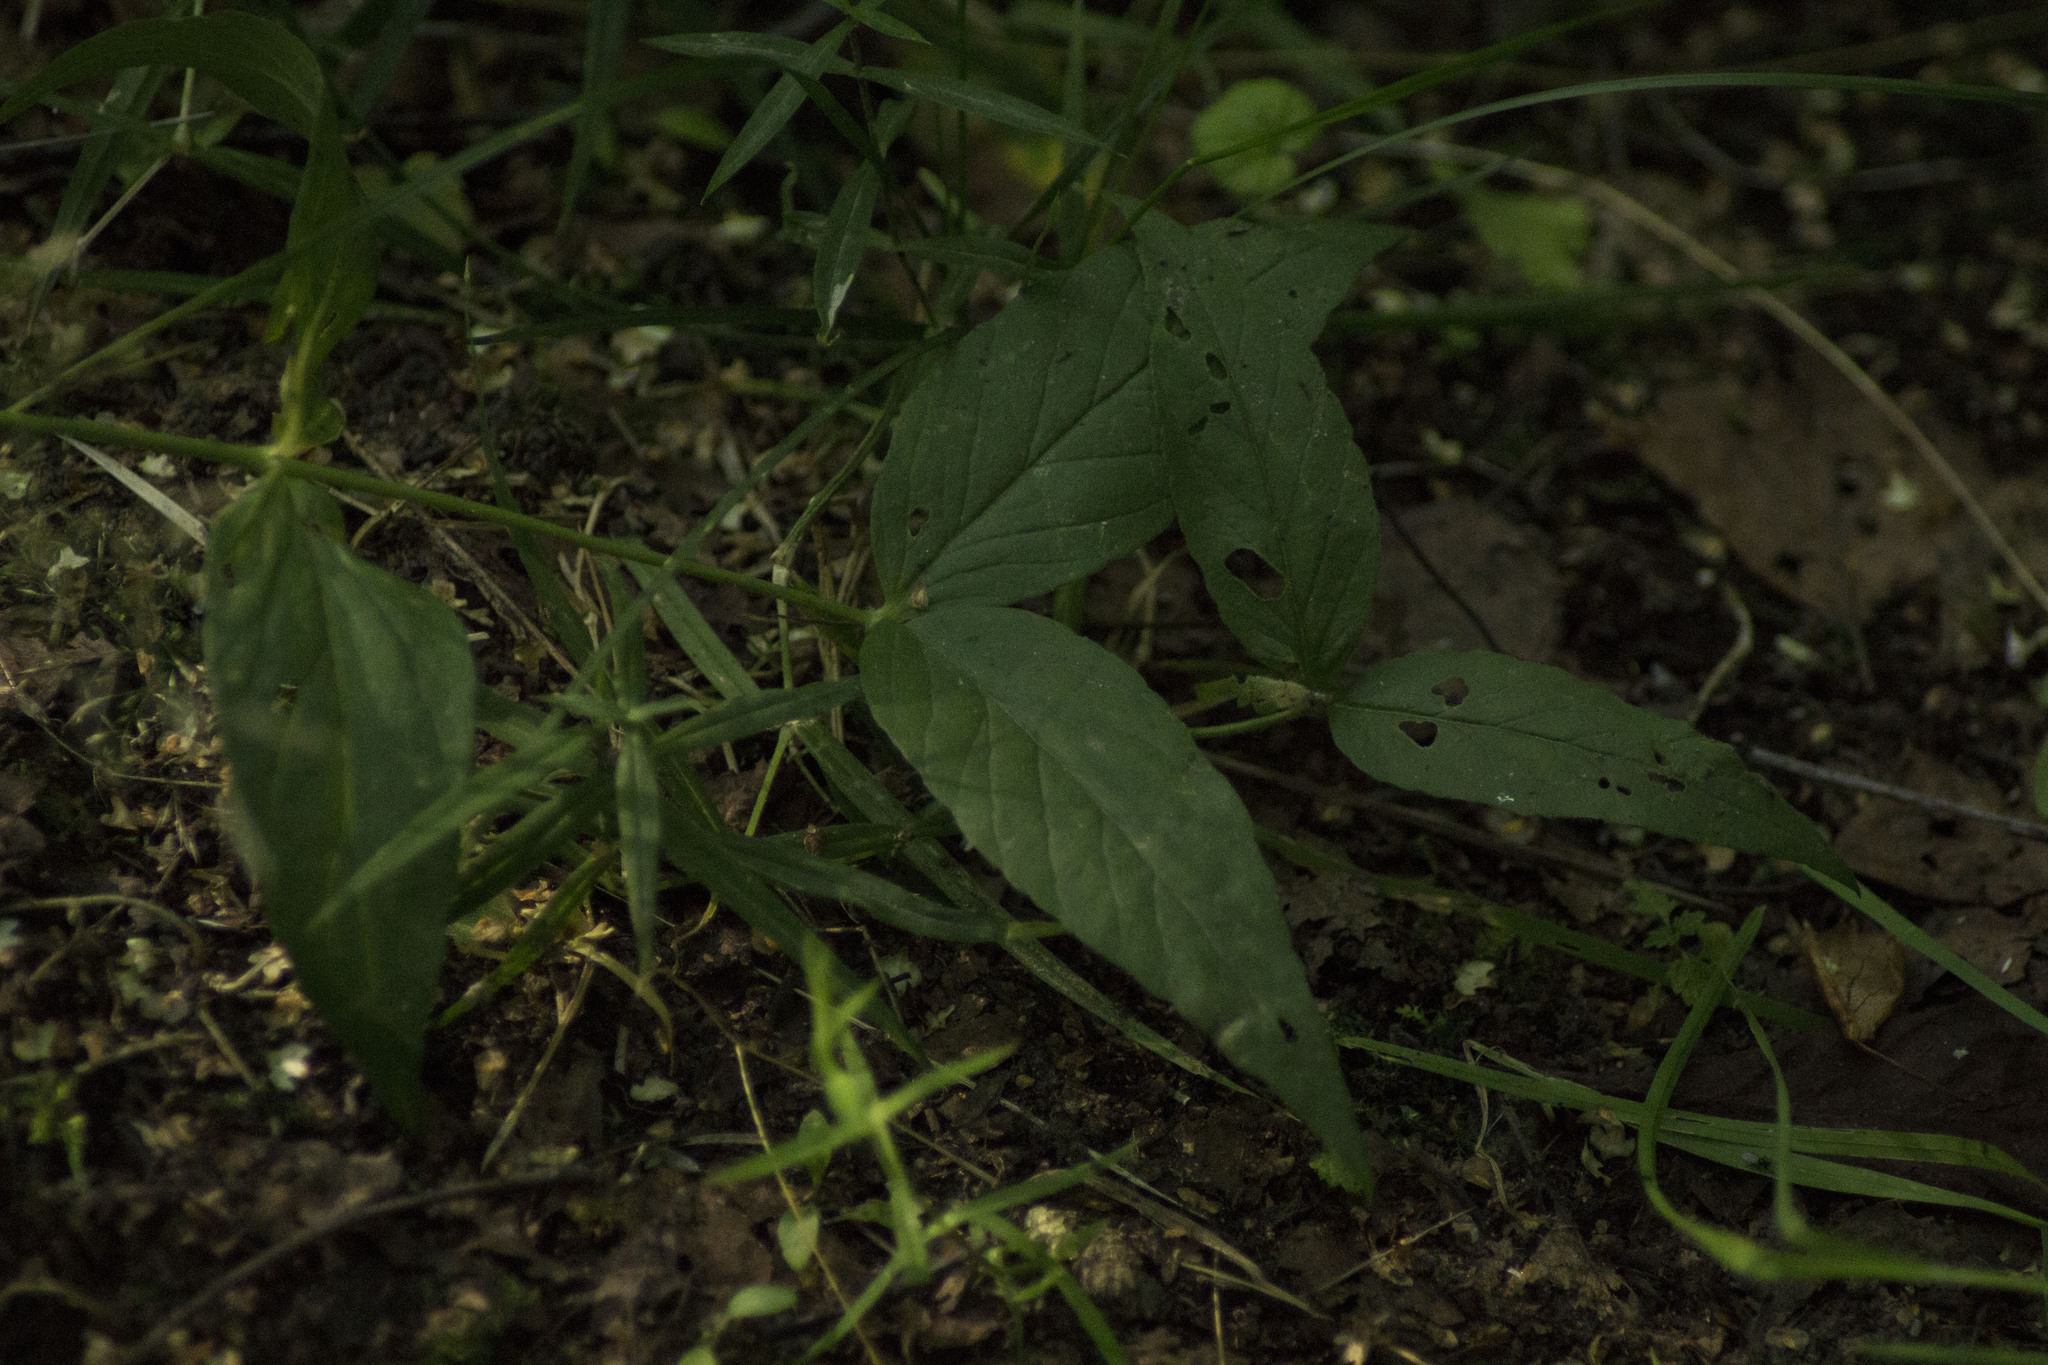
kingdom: Plantae
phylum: Tracheophyta
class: Magnoliopsida
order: Ericales
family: Primulaceae
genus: Lysimachia
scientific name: Lysimachia vulgaris
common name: Yellow loosestrife
